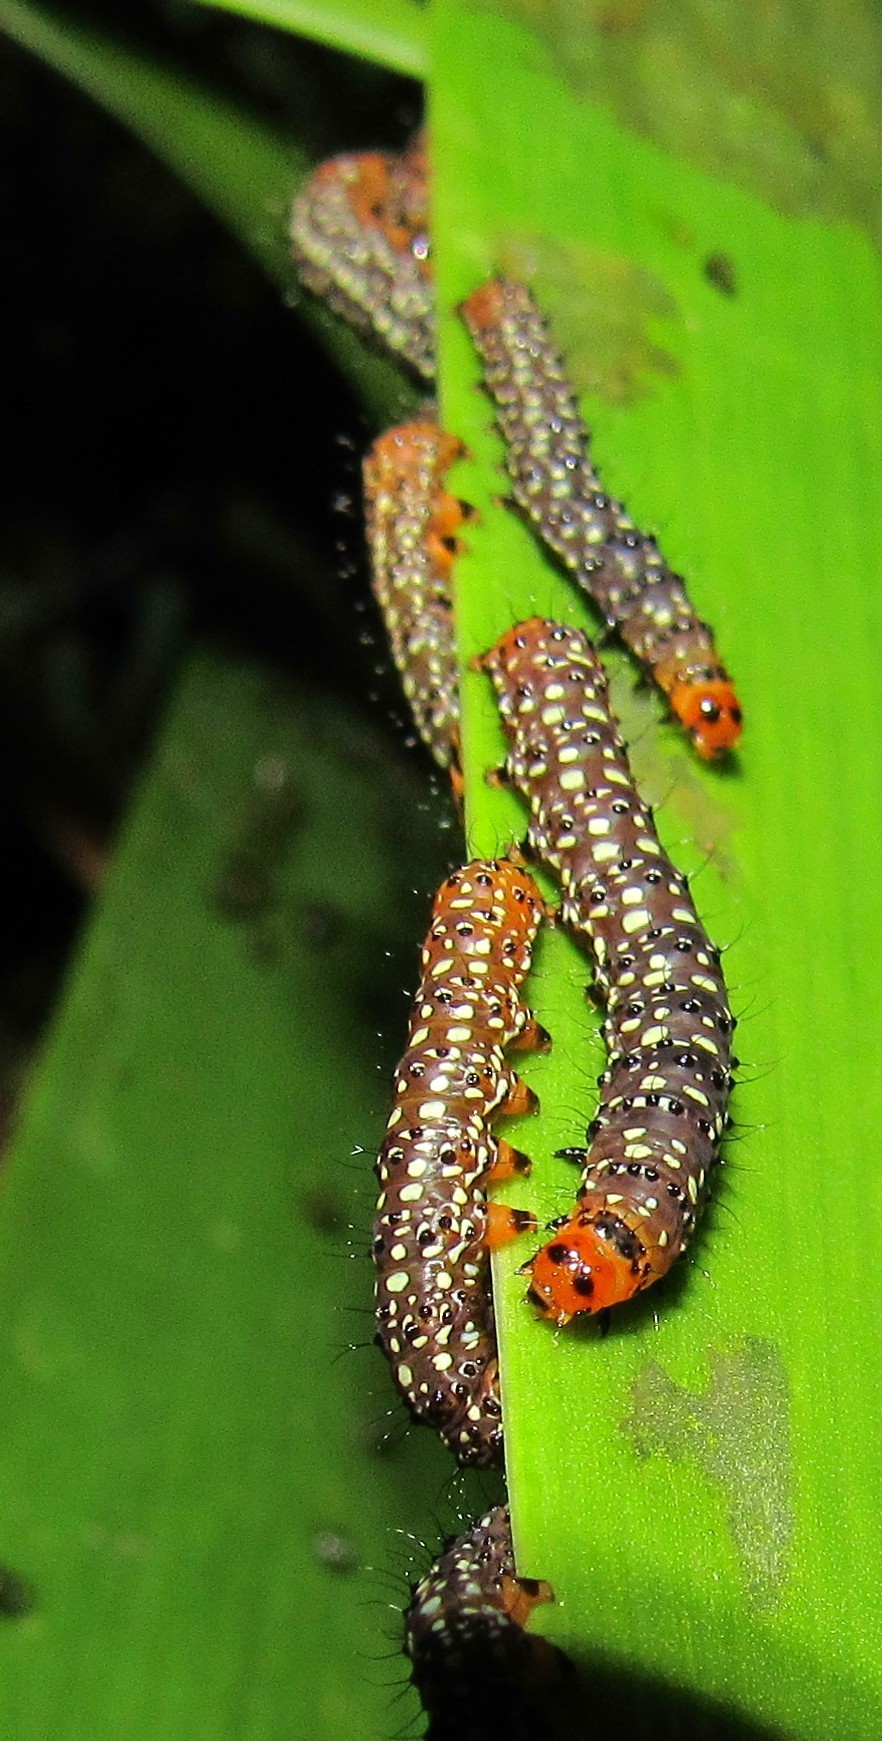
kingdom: Animalia
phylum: Arthropoda
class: Insecta
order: Lepidoptera
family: Noctuidae
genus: Xanthopastis
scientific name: Xanthopastis timais
